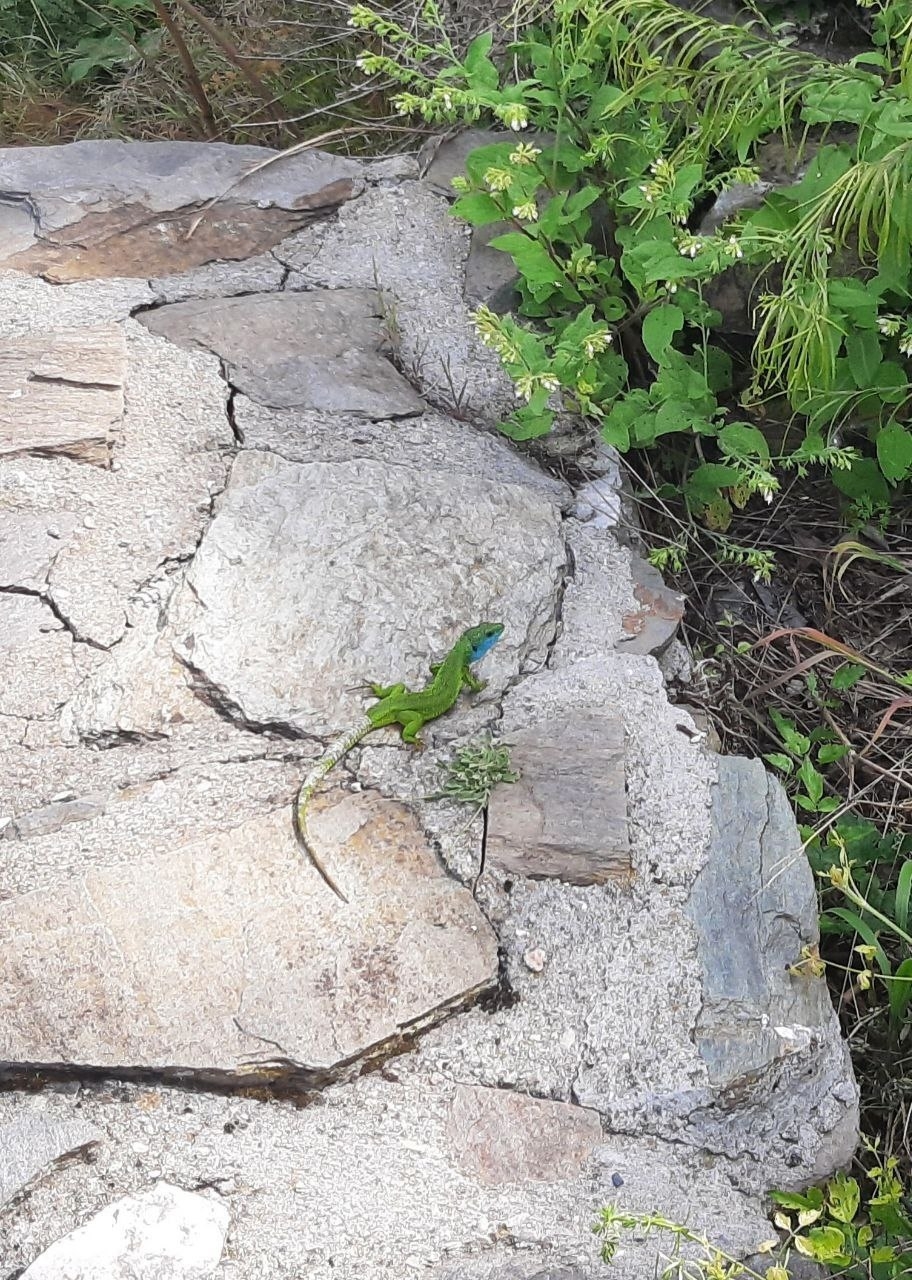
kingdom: Animalia
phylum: Chordata
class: Squamata
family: Lacertidae
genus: Lacerta
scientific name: Lacerta viridis
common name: European green lizard
